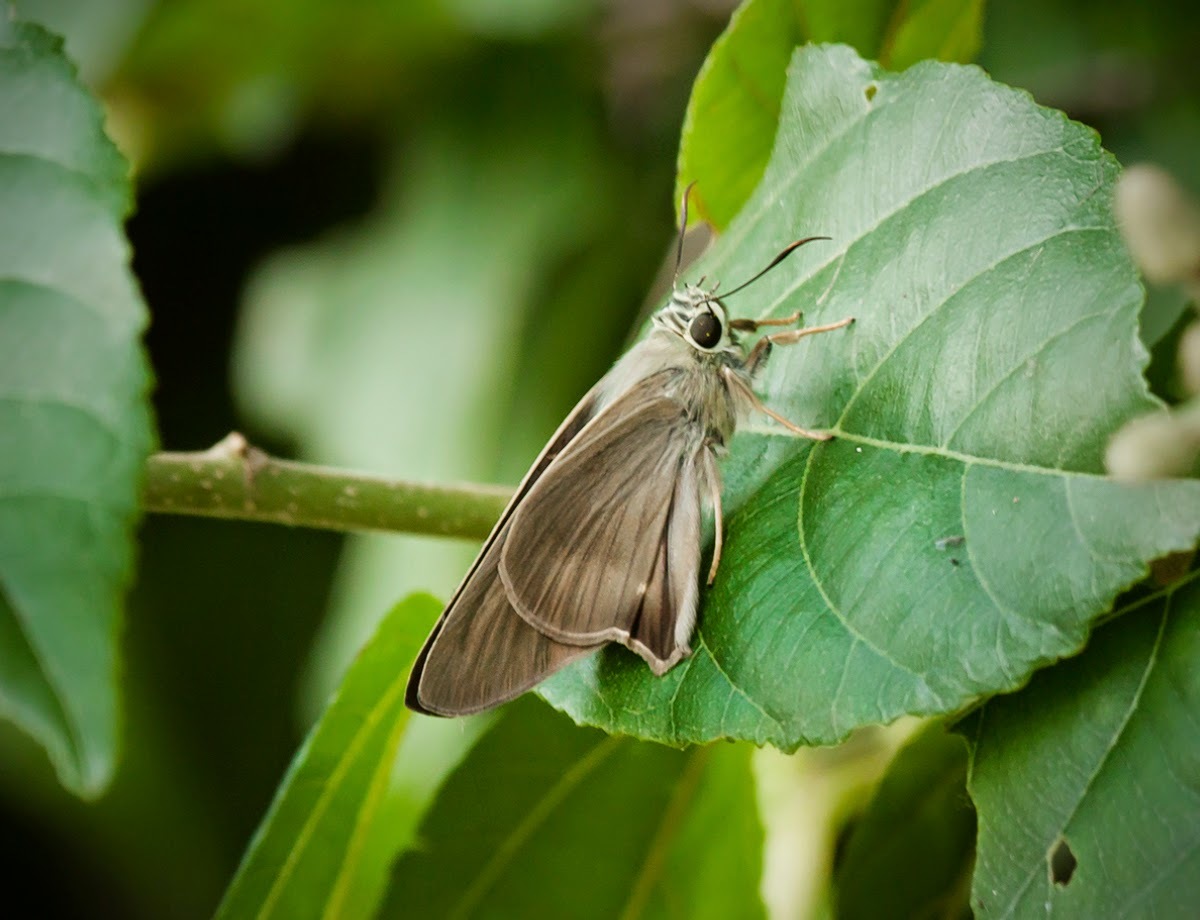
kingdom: Animalia
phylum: Arthropoda
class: Insecta
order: Lepidoptera
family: Hesperiidae
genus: Badamia
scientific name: Badamia exclamationis
